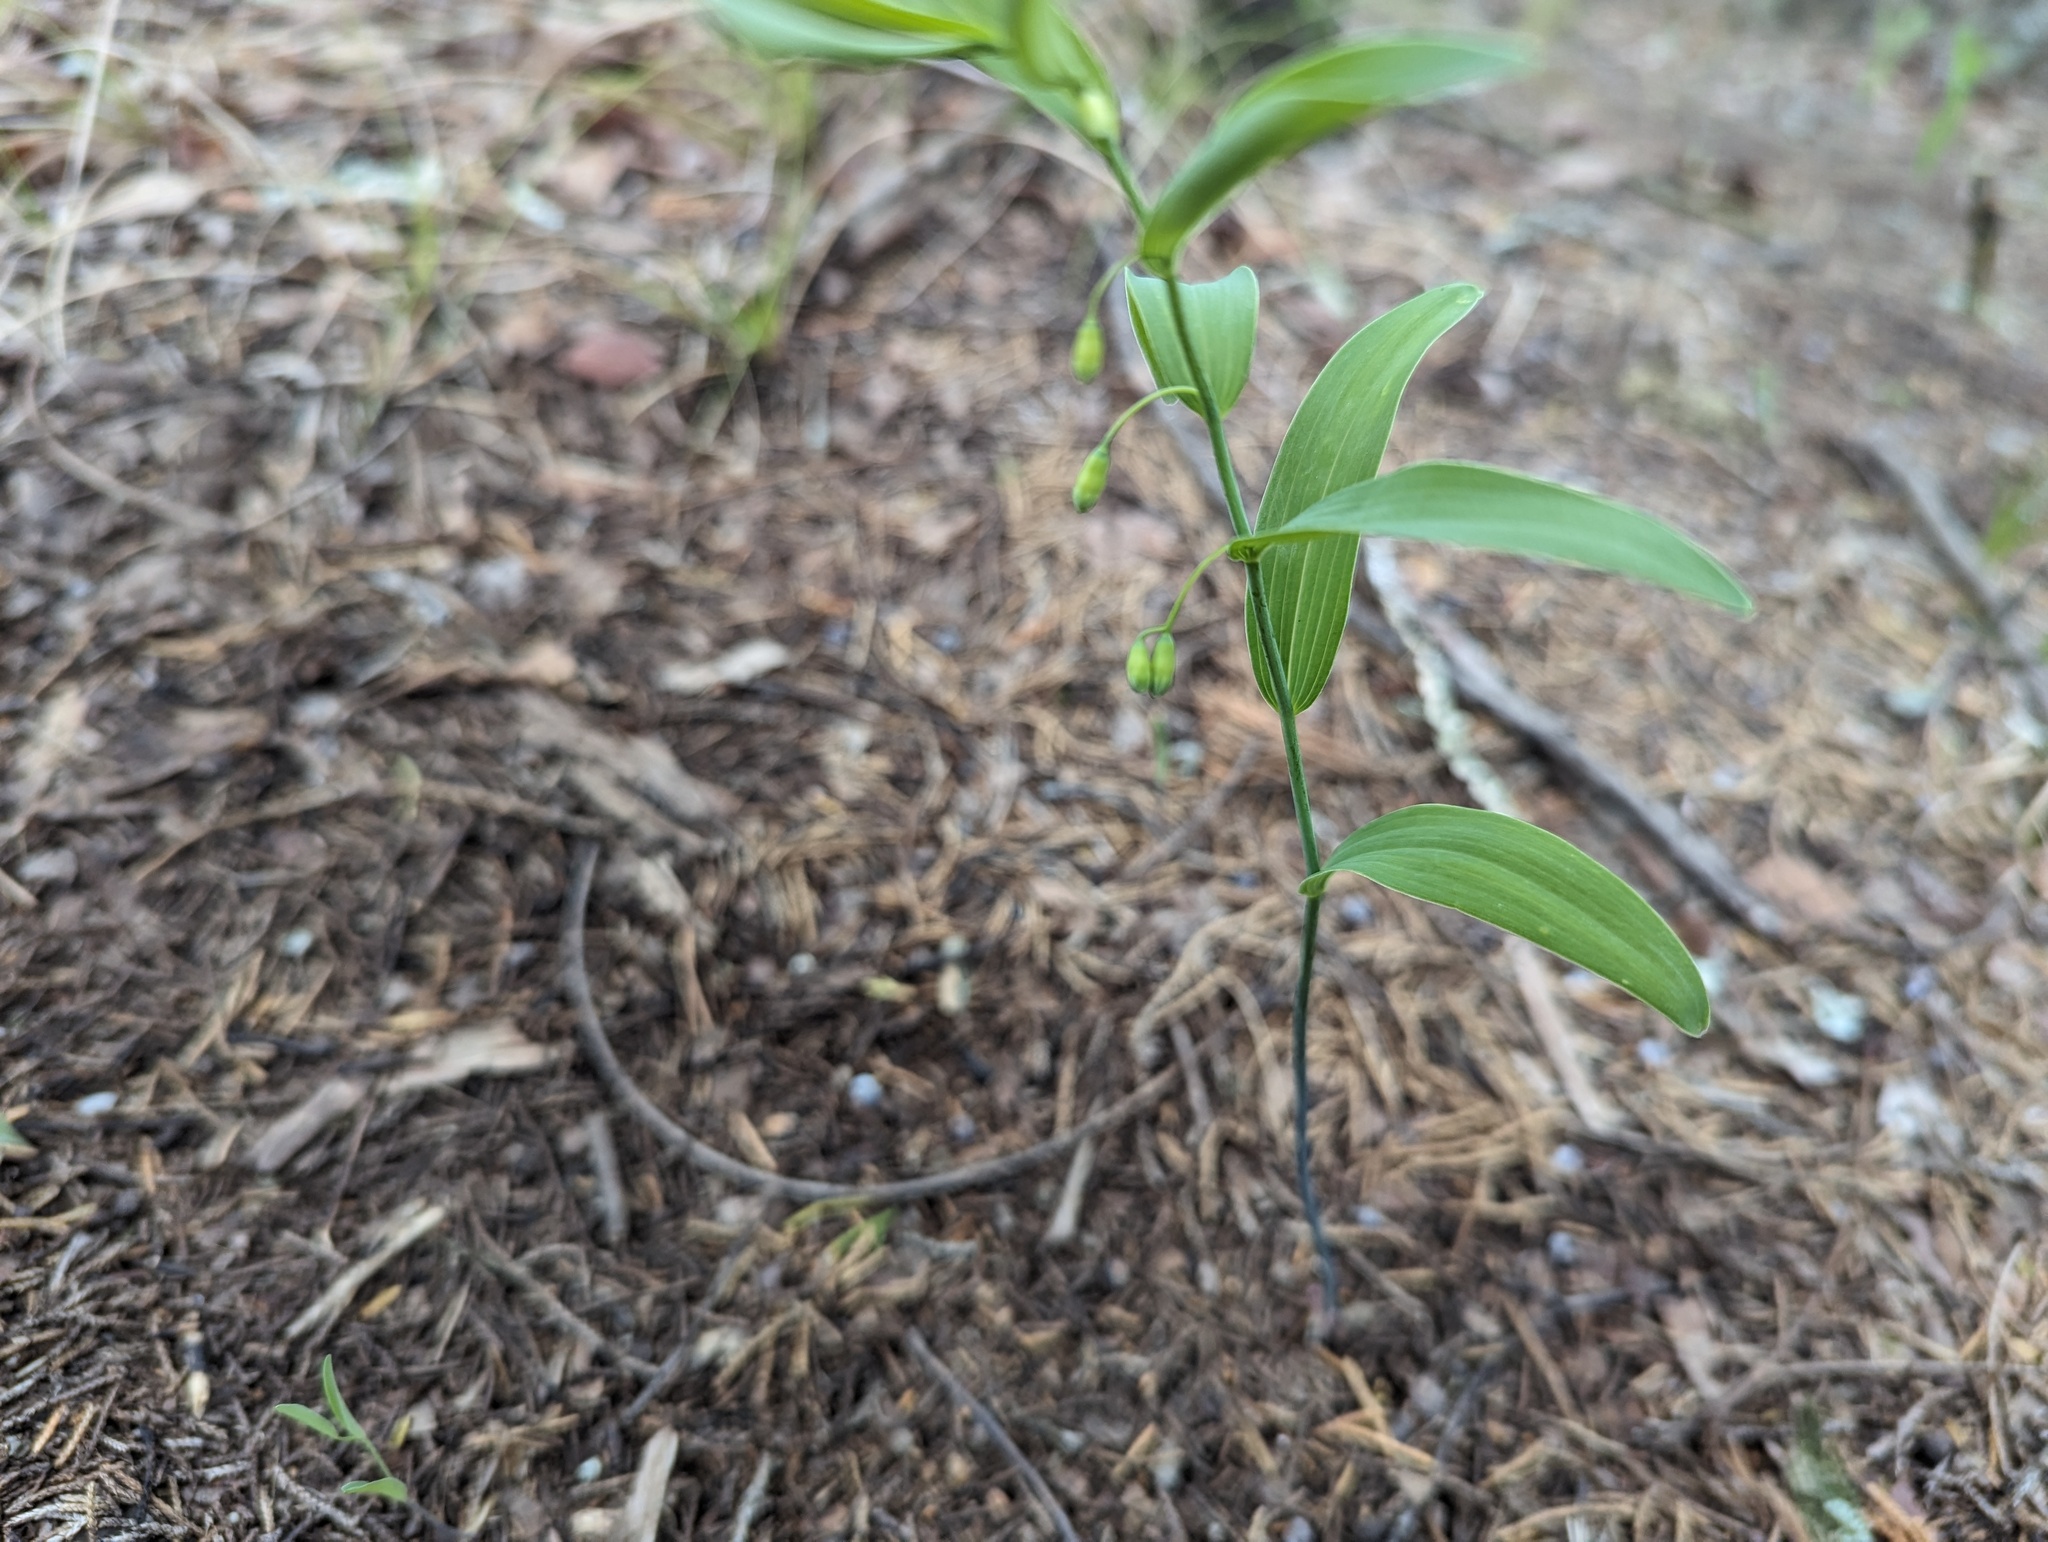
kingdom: Plantae
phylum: Tracheophyta
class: Liliopsida
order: Asparagales
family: Asparagaceae
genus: Polygonatum
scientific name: Polygonatum biflorum
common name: American solomon's-seal
